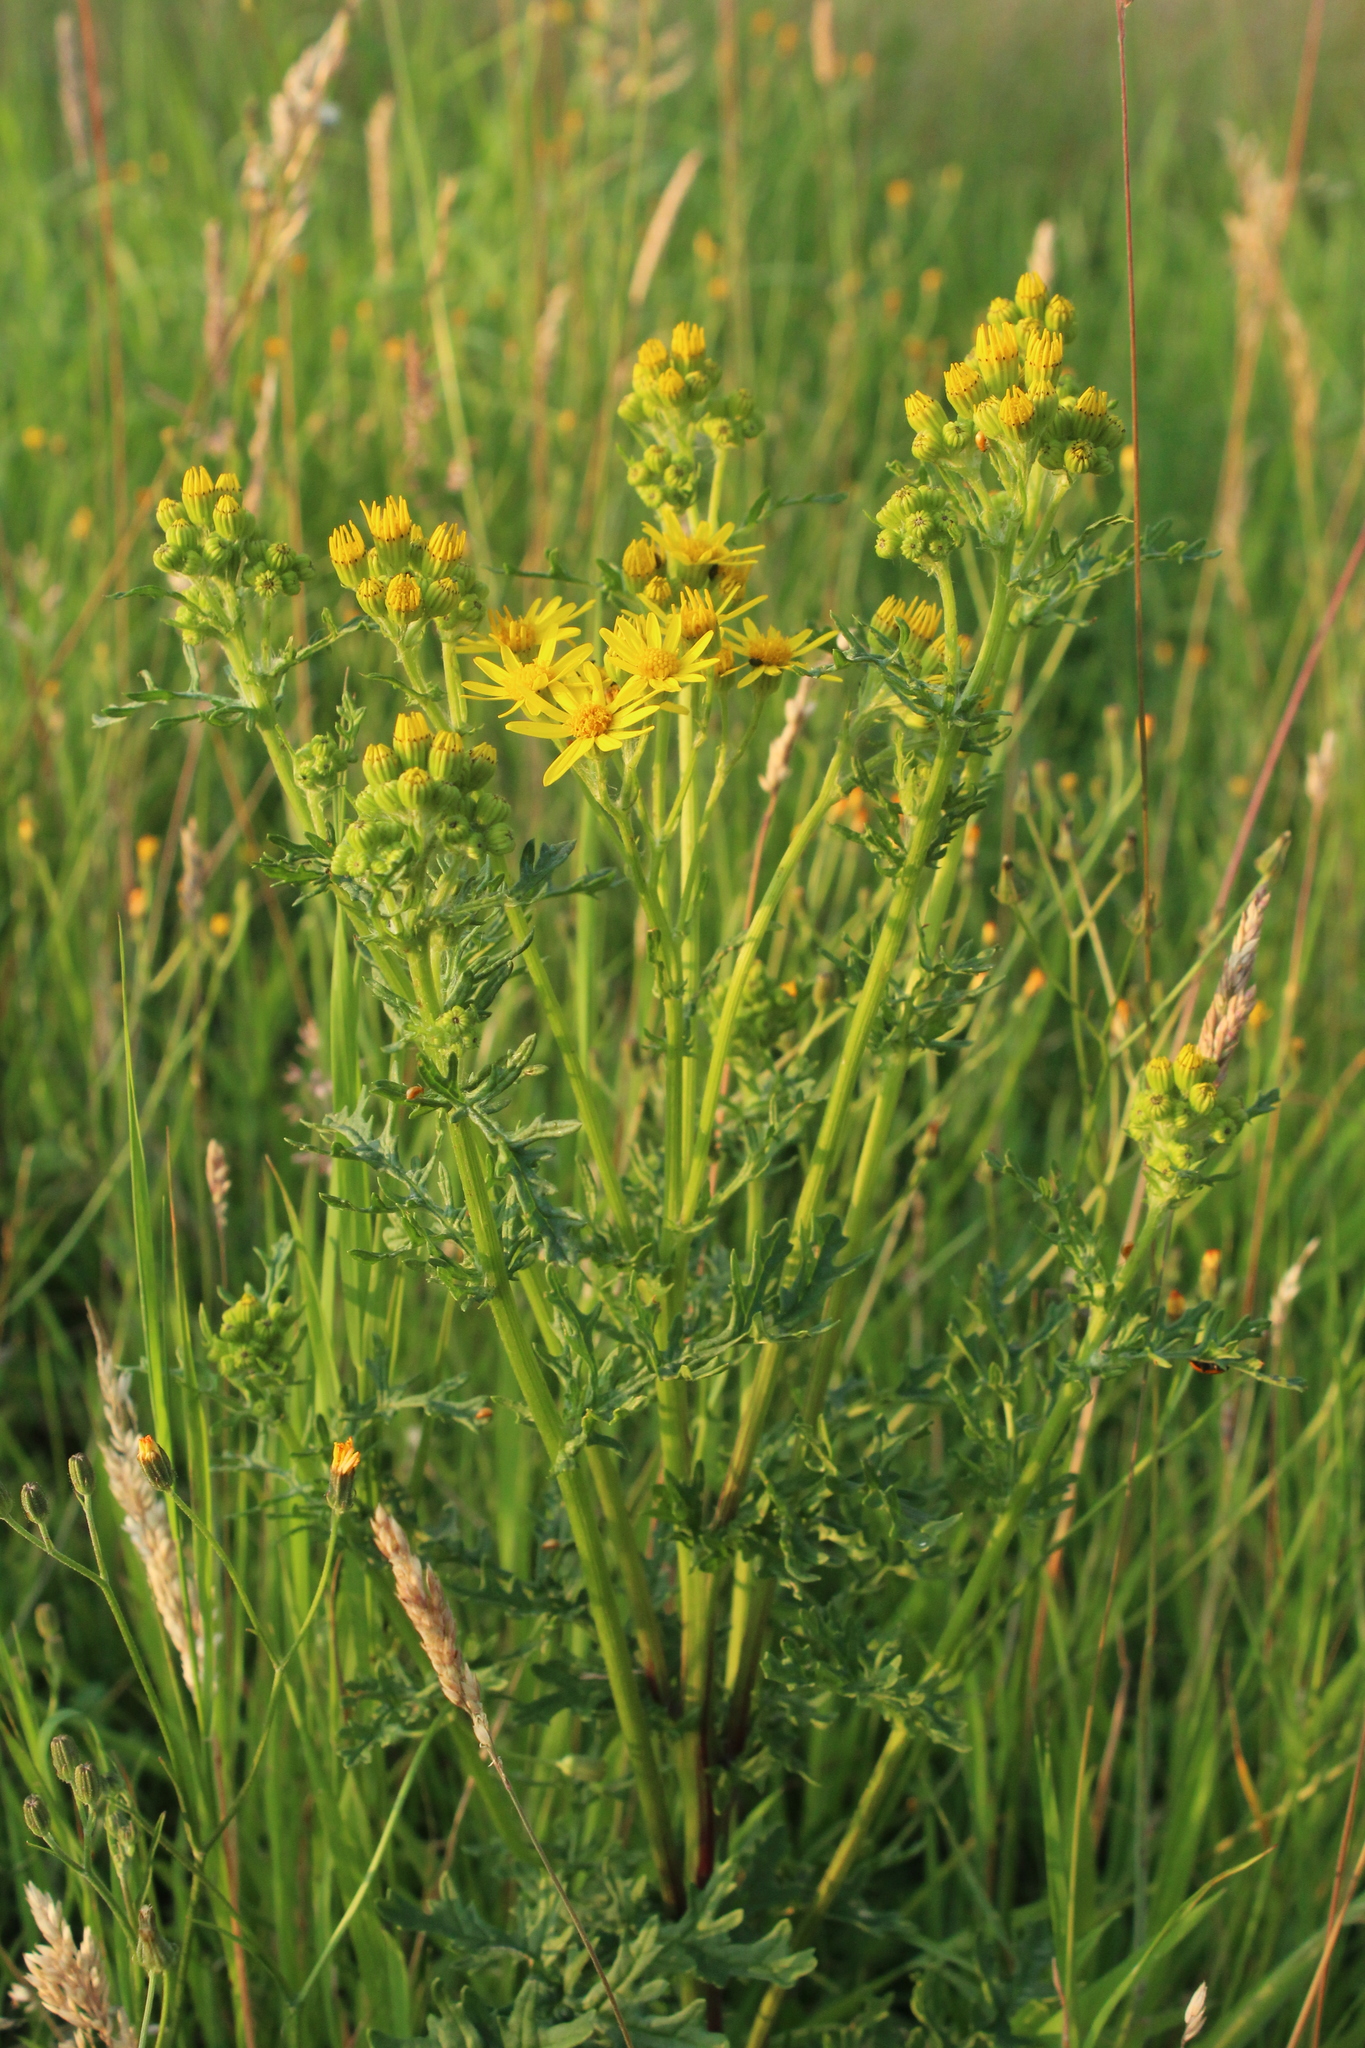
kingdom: Plantae
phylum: Tracheophyta
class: Magnoliopsida
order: Asterales
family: Asteraceae
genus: Jacobaea
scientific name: Jacobaea vulgaris
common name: Stinking willie
